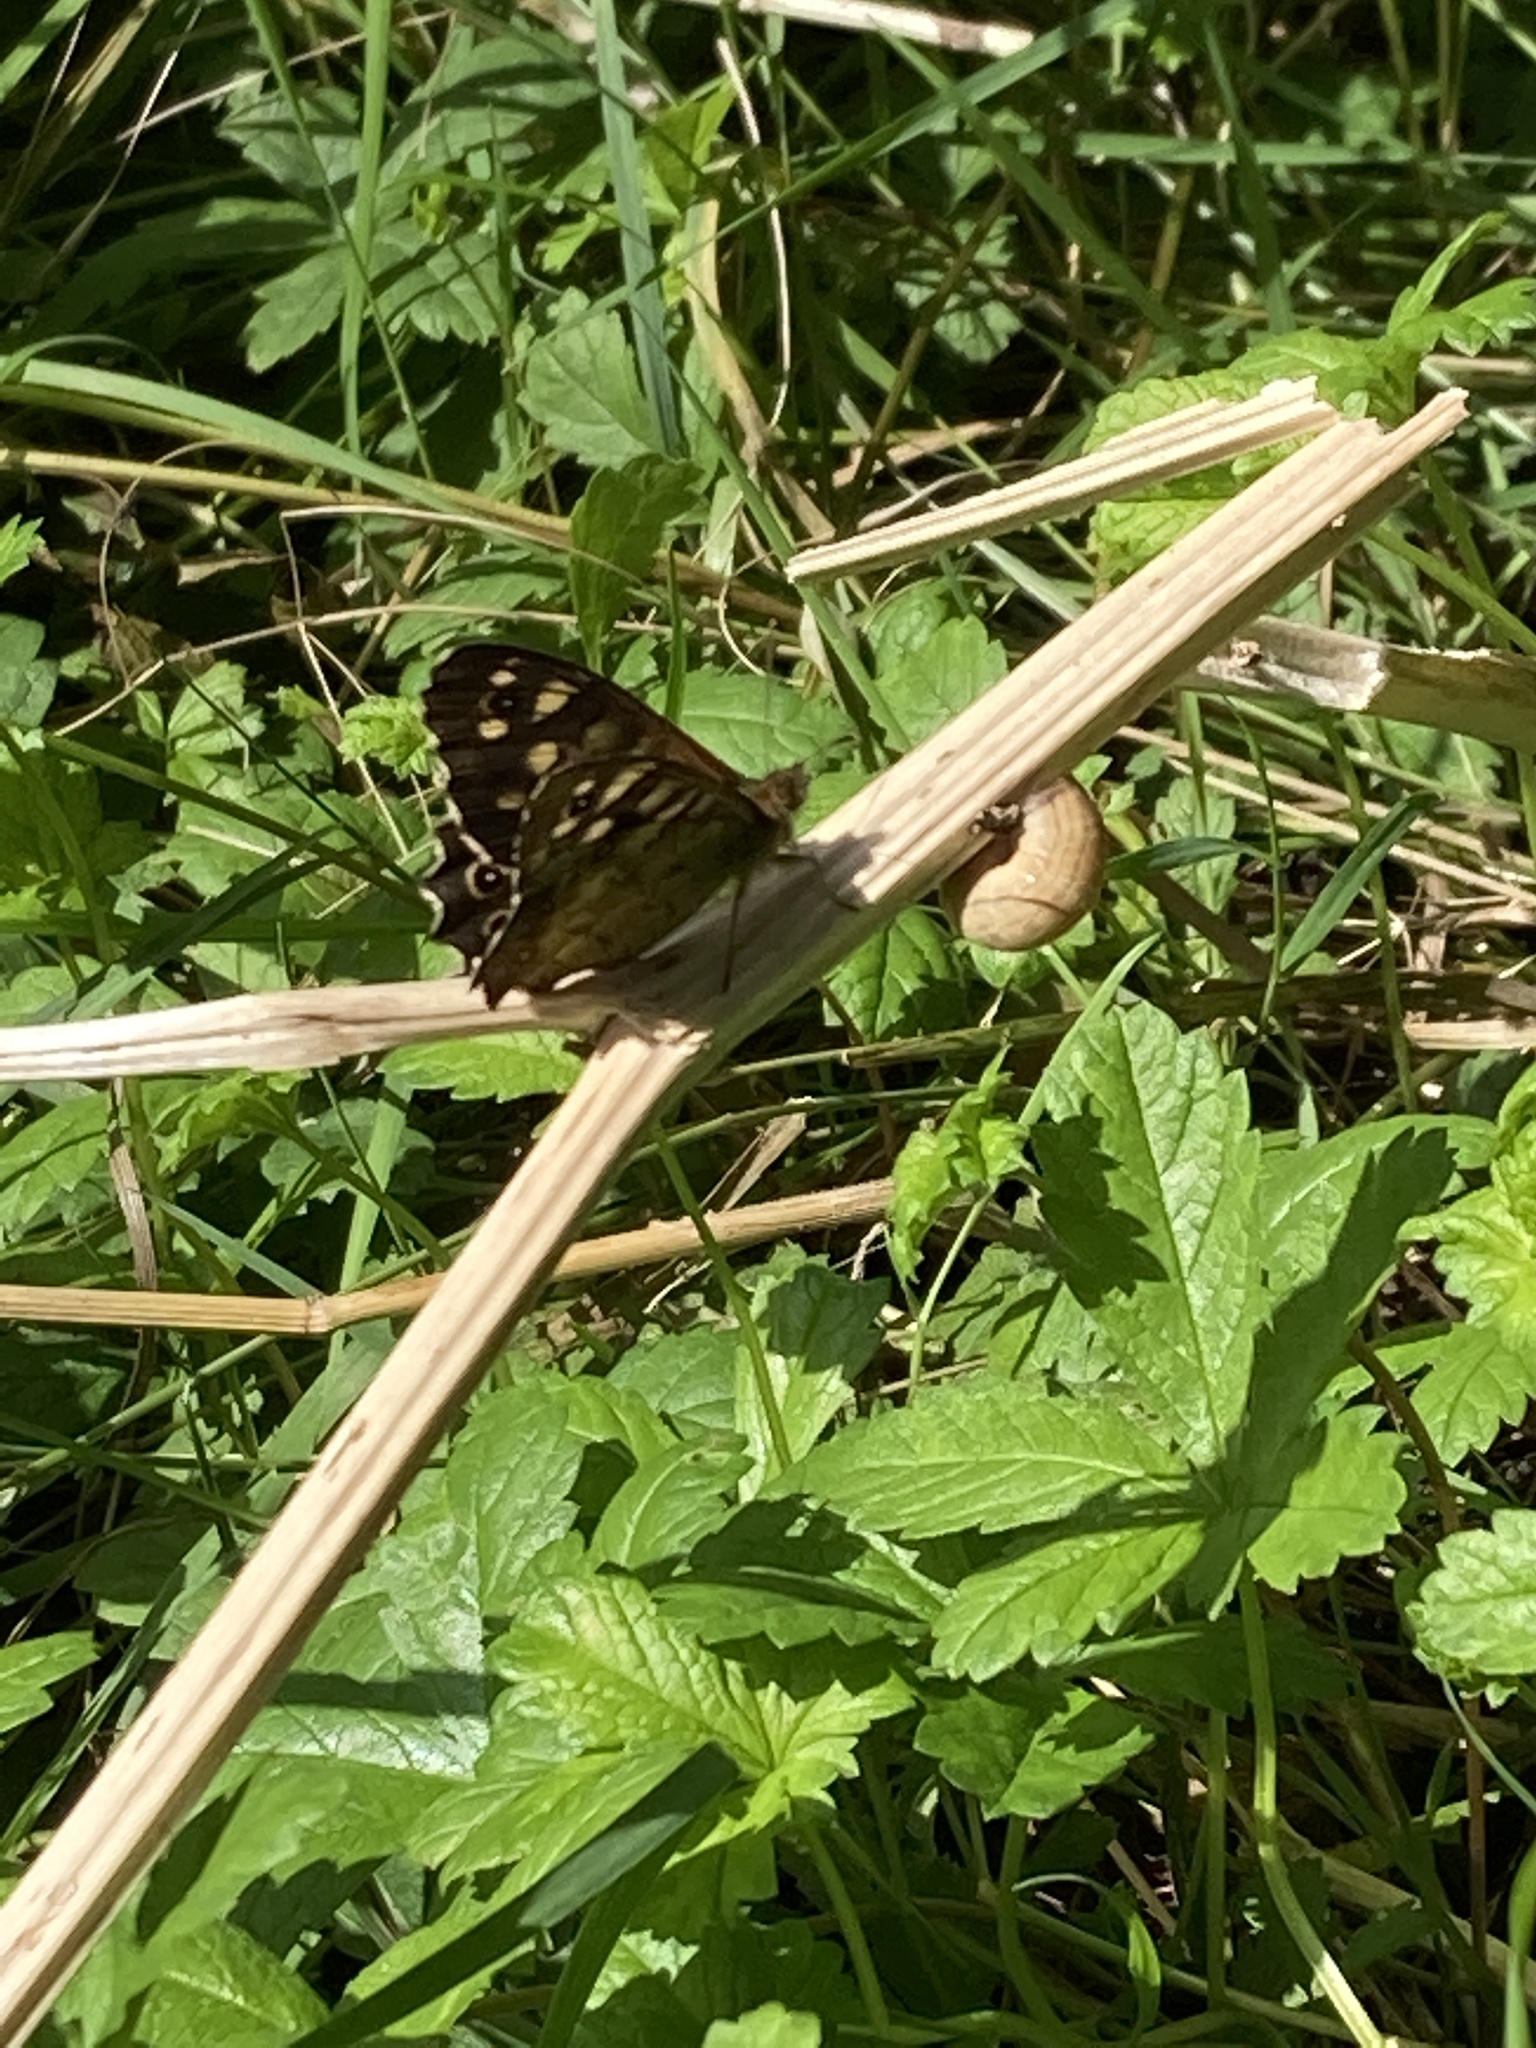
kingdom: Animalia
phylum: Arthropoda
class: Insecta
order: Lepidoptera
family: Nymphalidae
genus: Pararge
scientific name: Pararge aegeria
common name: Speckled wood
